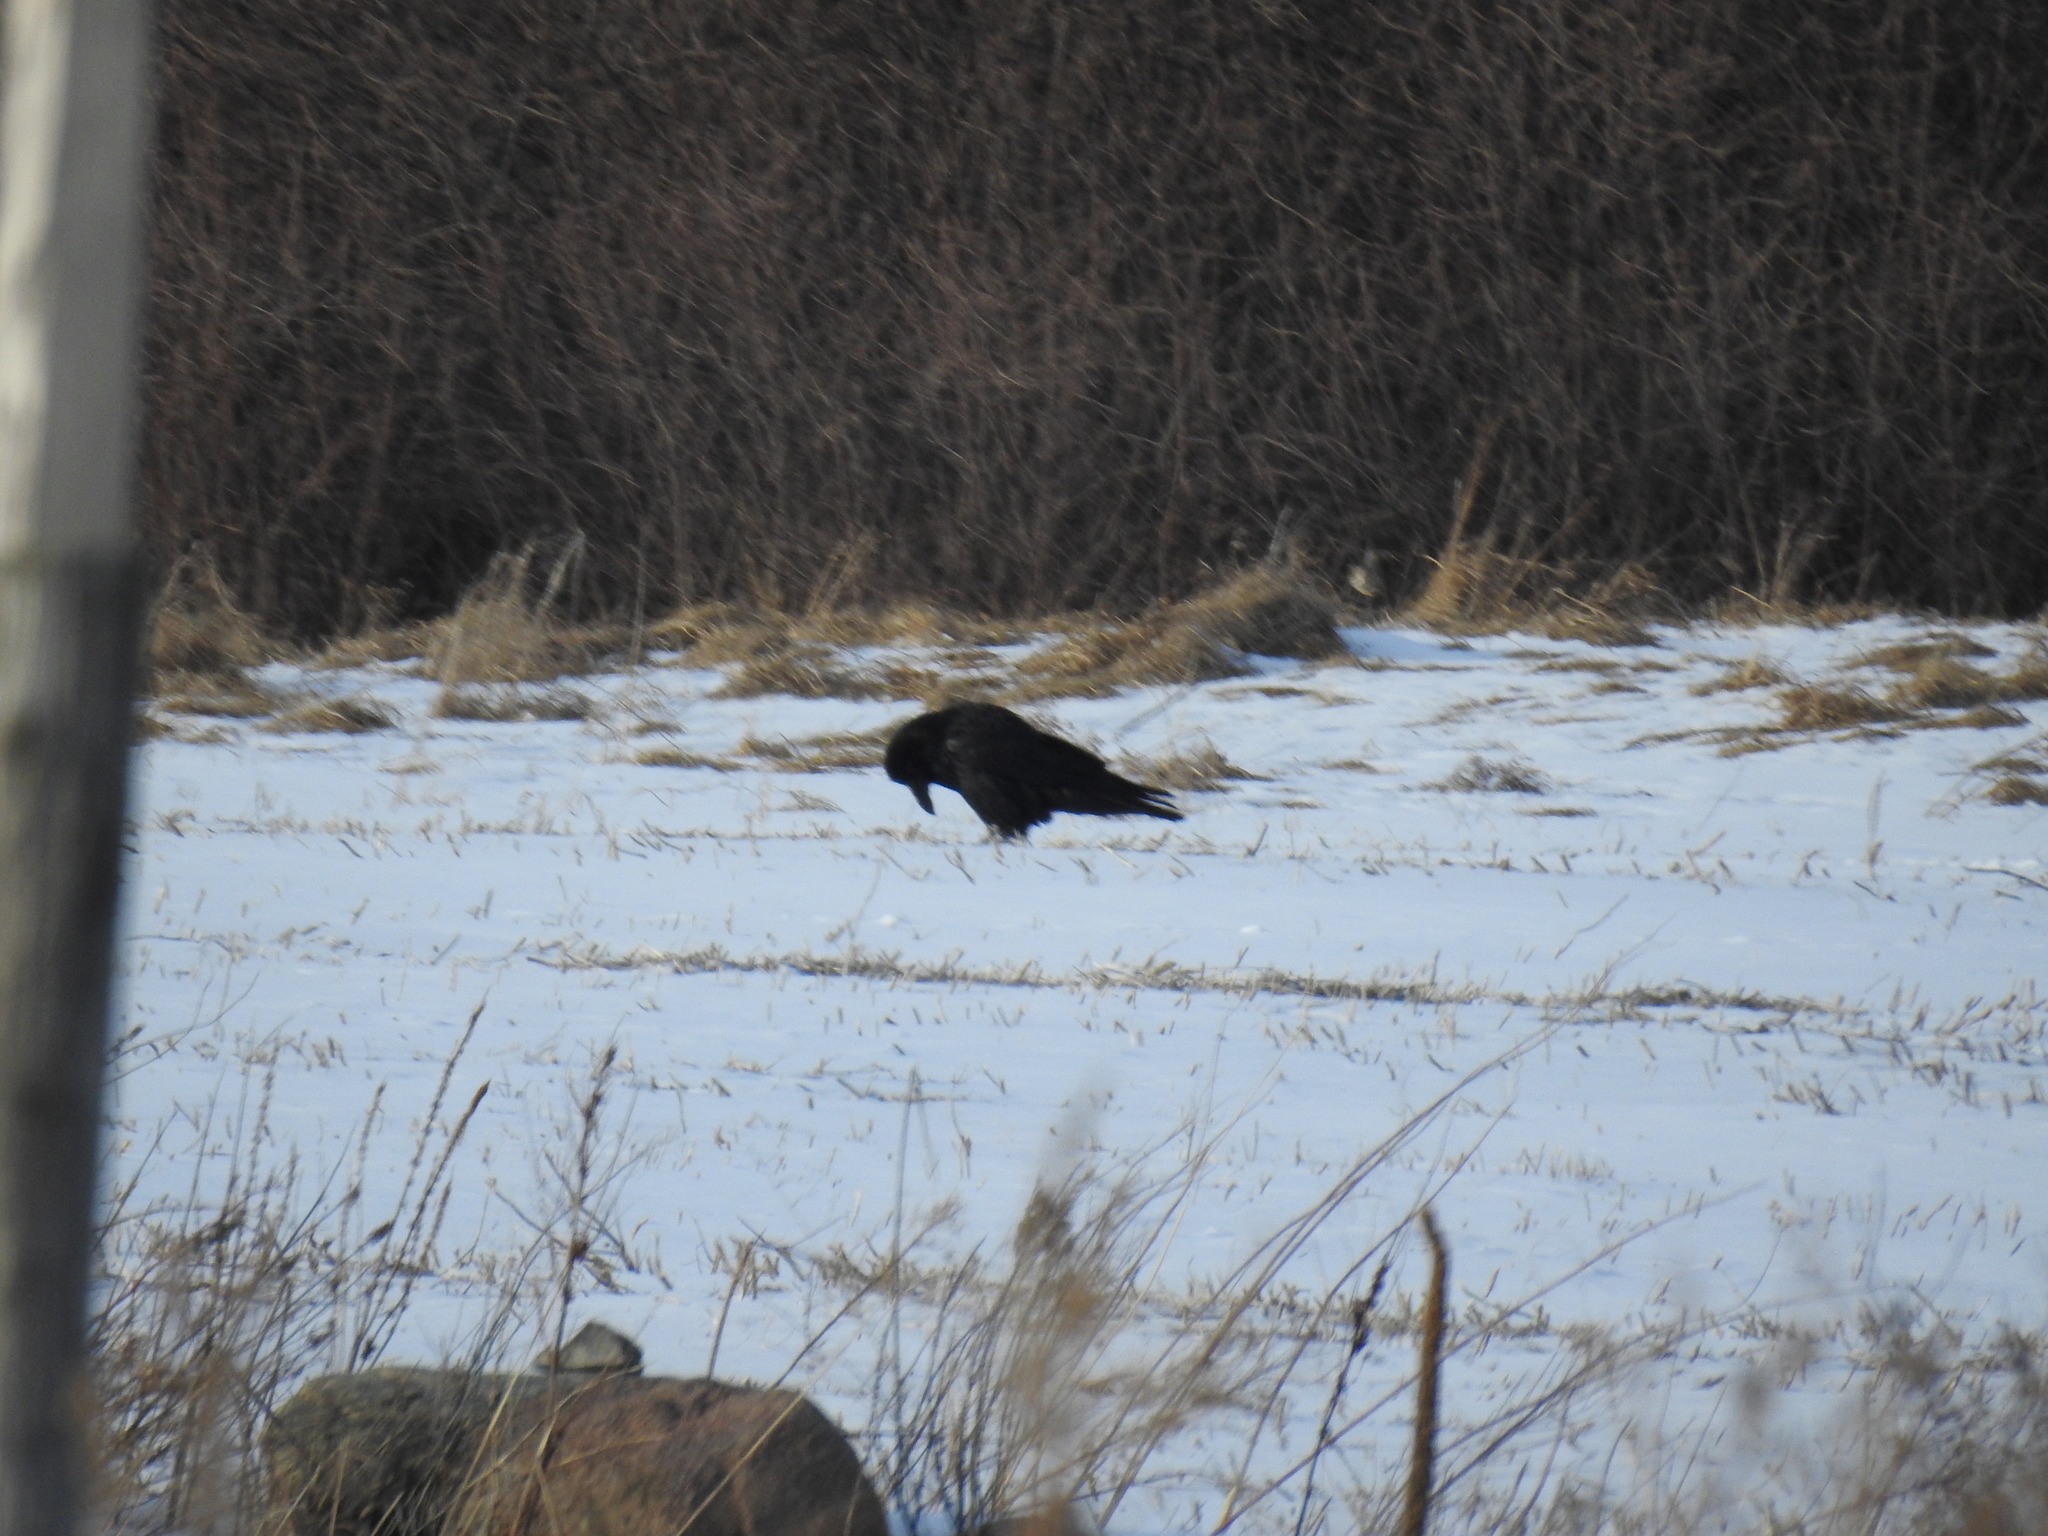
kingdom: Animalia
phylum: Chordata
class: Aves
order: Passeriformes
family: Corvidae
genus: Corvus
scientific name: Corvus corax
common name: Common raven
